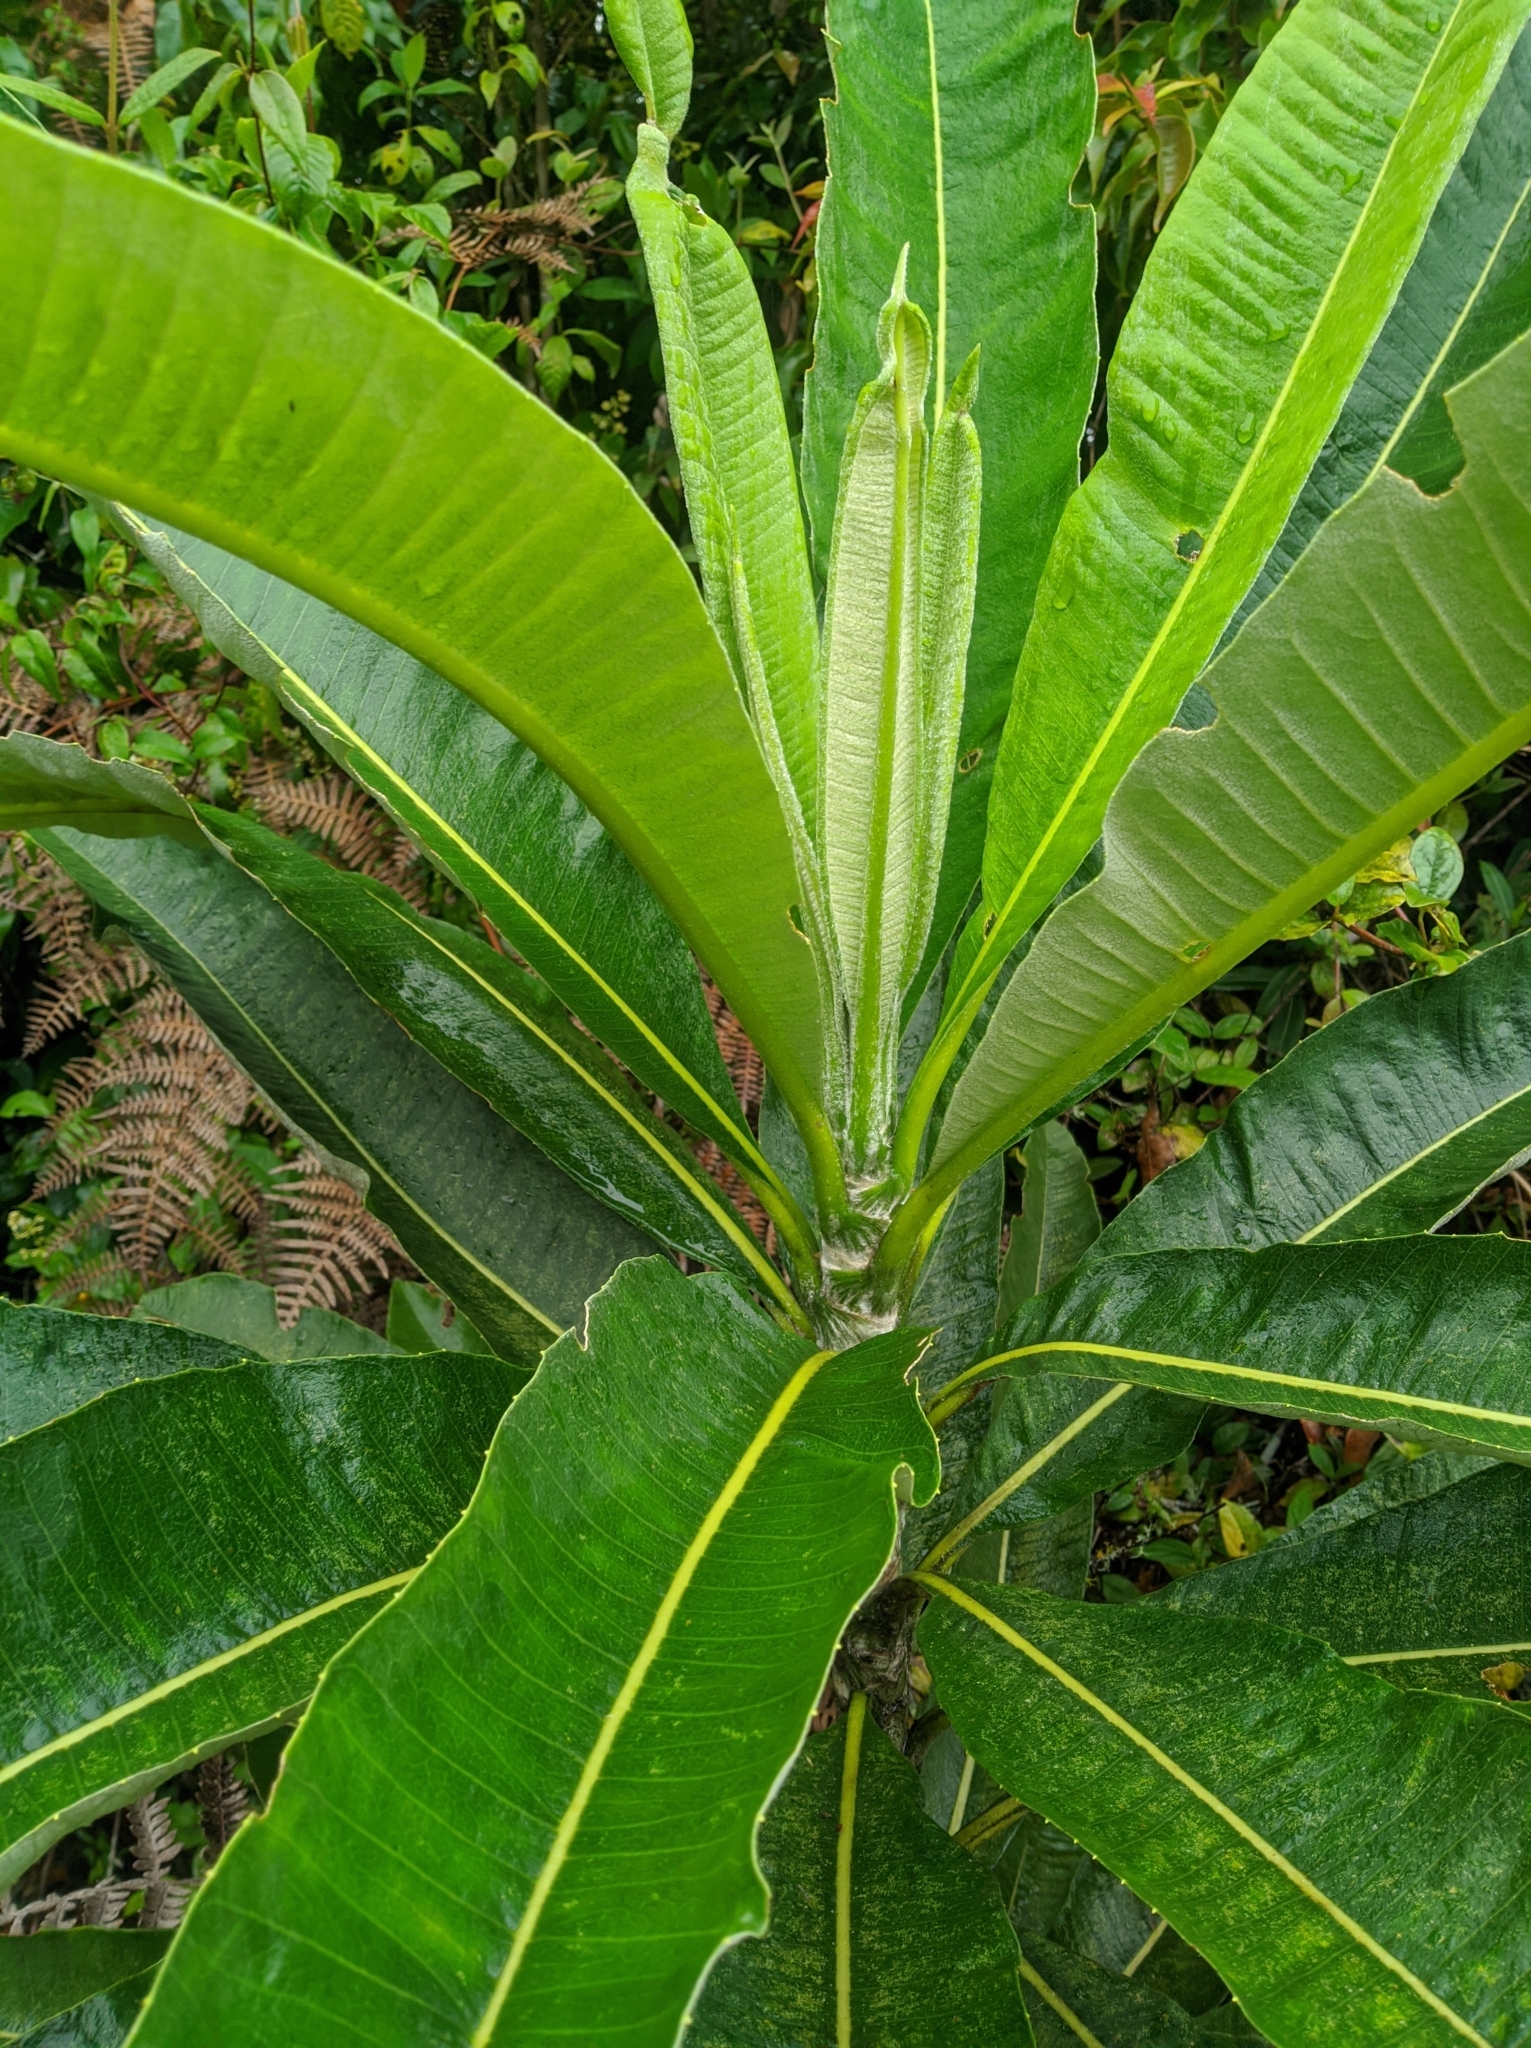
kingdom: Plantae
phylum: Tracheophyta
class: Magnoliopsida
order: Asterales
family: Asteraceae
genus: Espeletia
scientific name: Espeletia neriifolia
